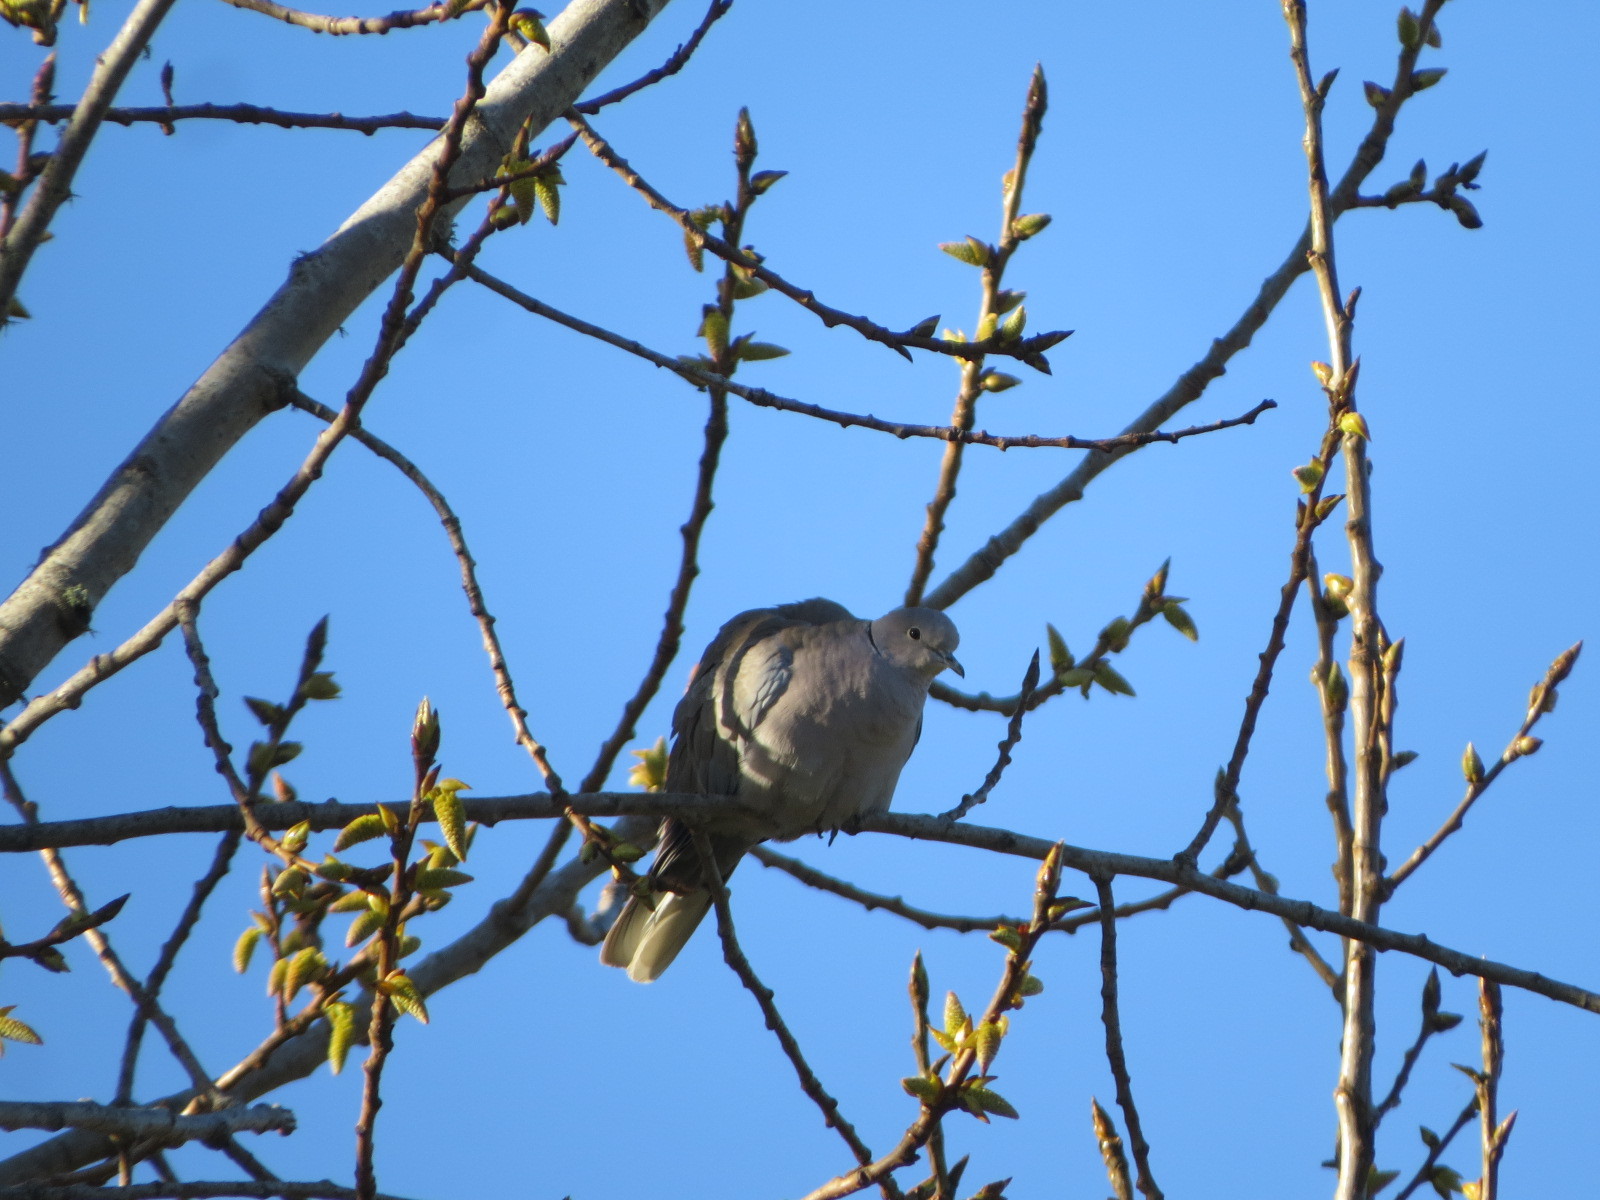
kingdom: Animalia
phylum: Chordata
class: Aves
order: Columbiformes
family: Columbidae
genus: Streptopelia
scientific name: Streptopelia decaocto
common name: Eurasian collared dove
